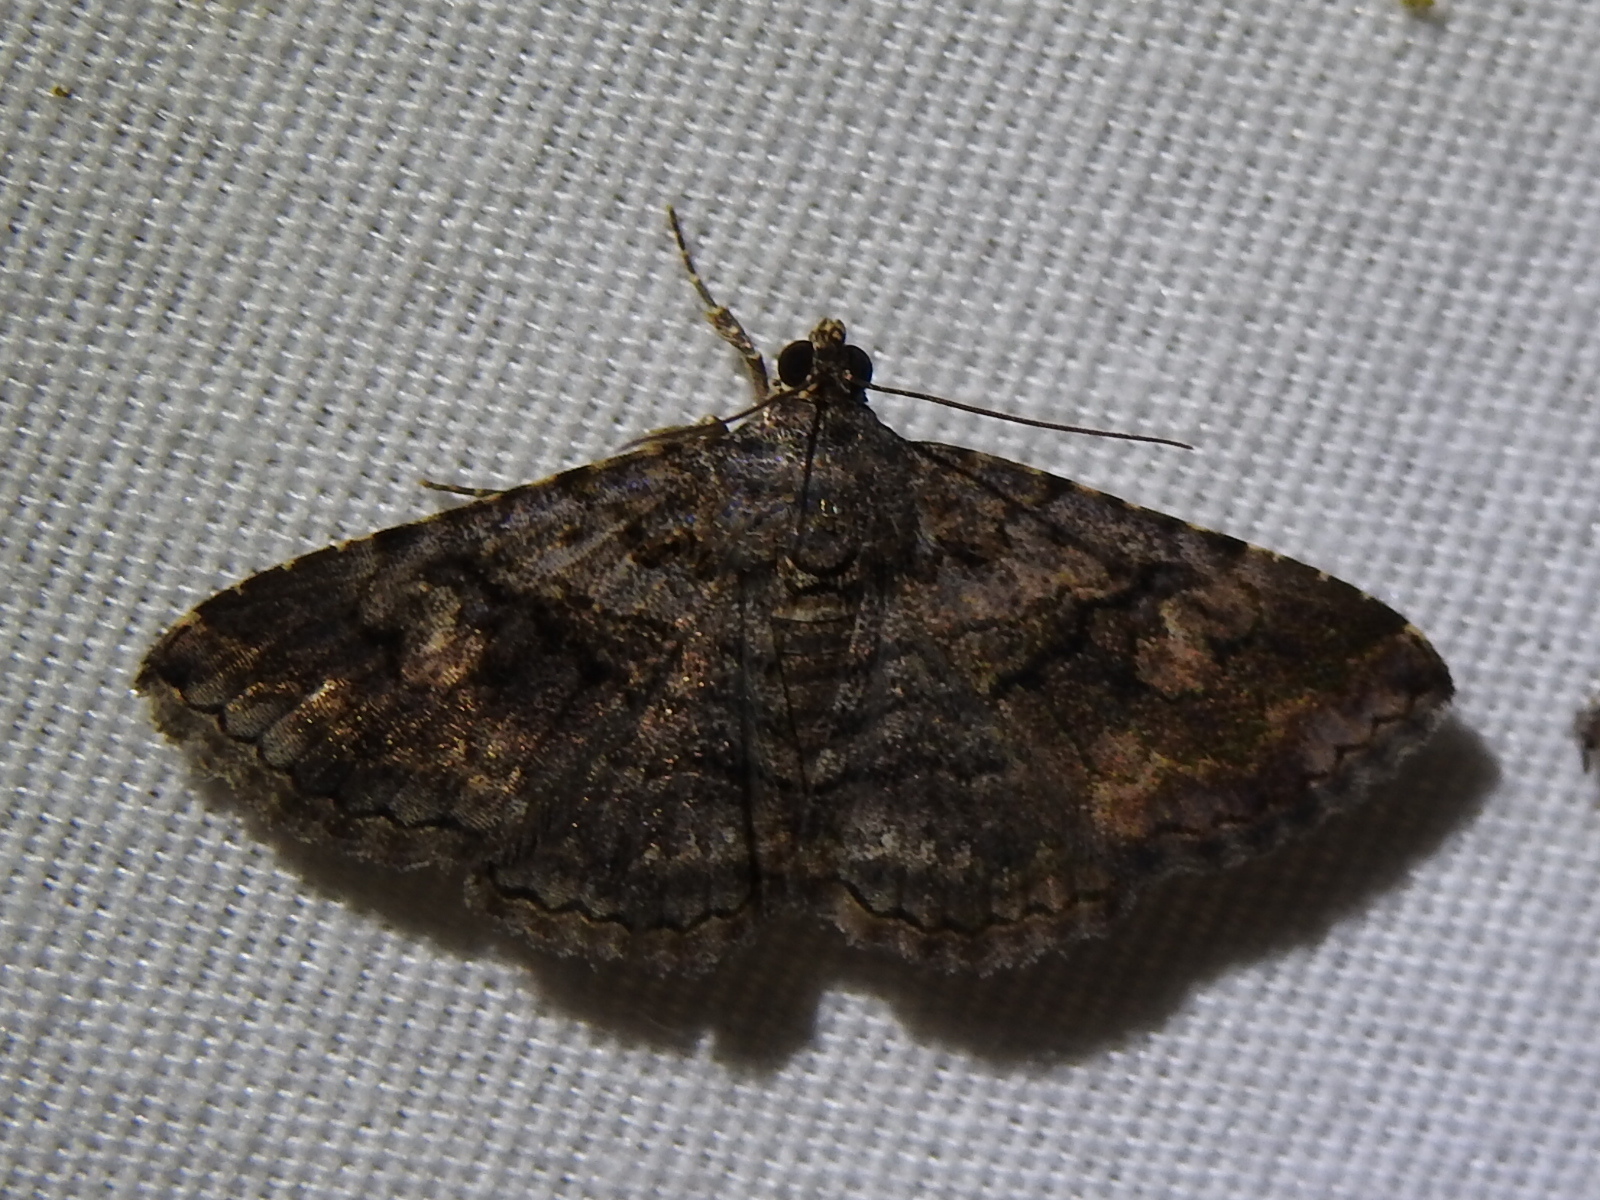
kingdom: Animalia
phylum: Arthropoda
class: Insecta
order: Lepidoptera
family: Erebidae
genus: Toxonprucha
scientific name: Toxonprucha excavata
